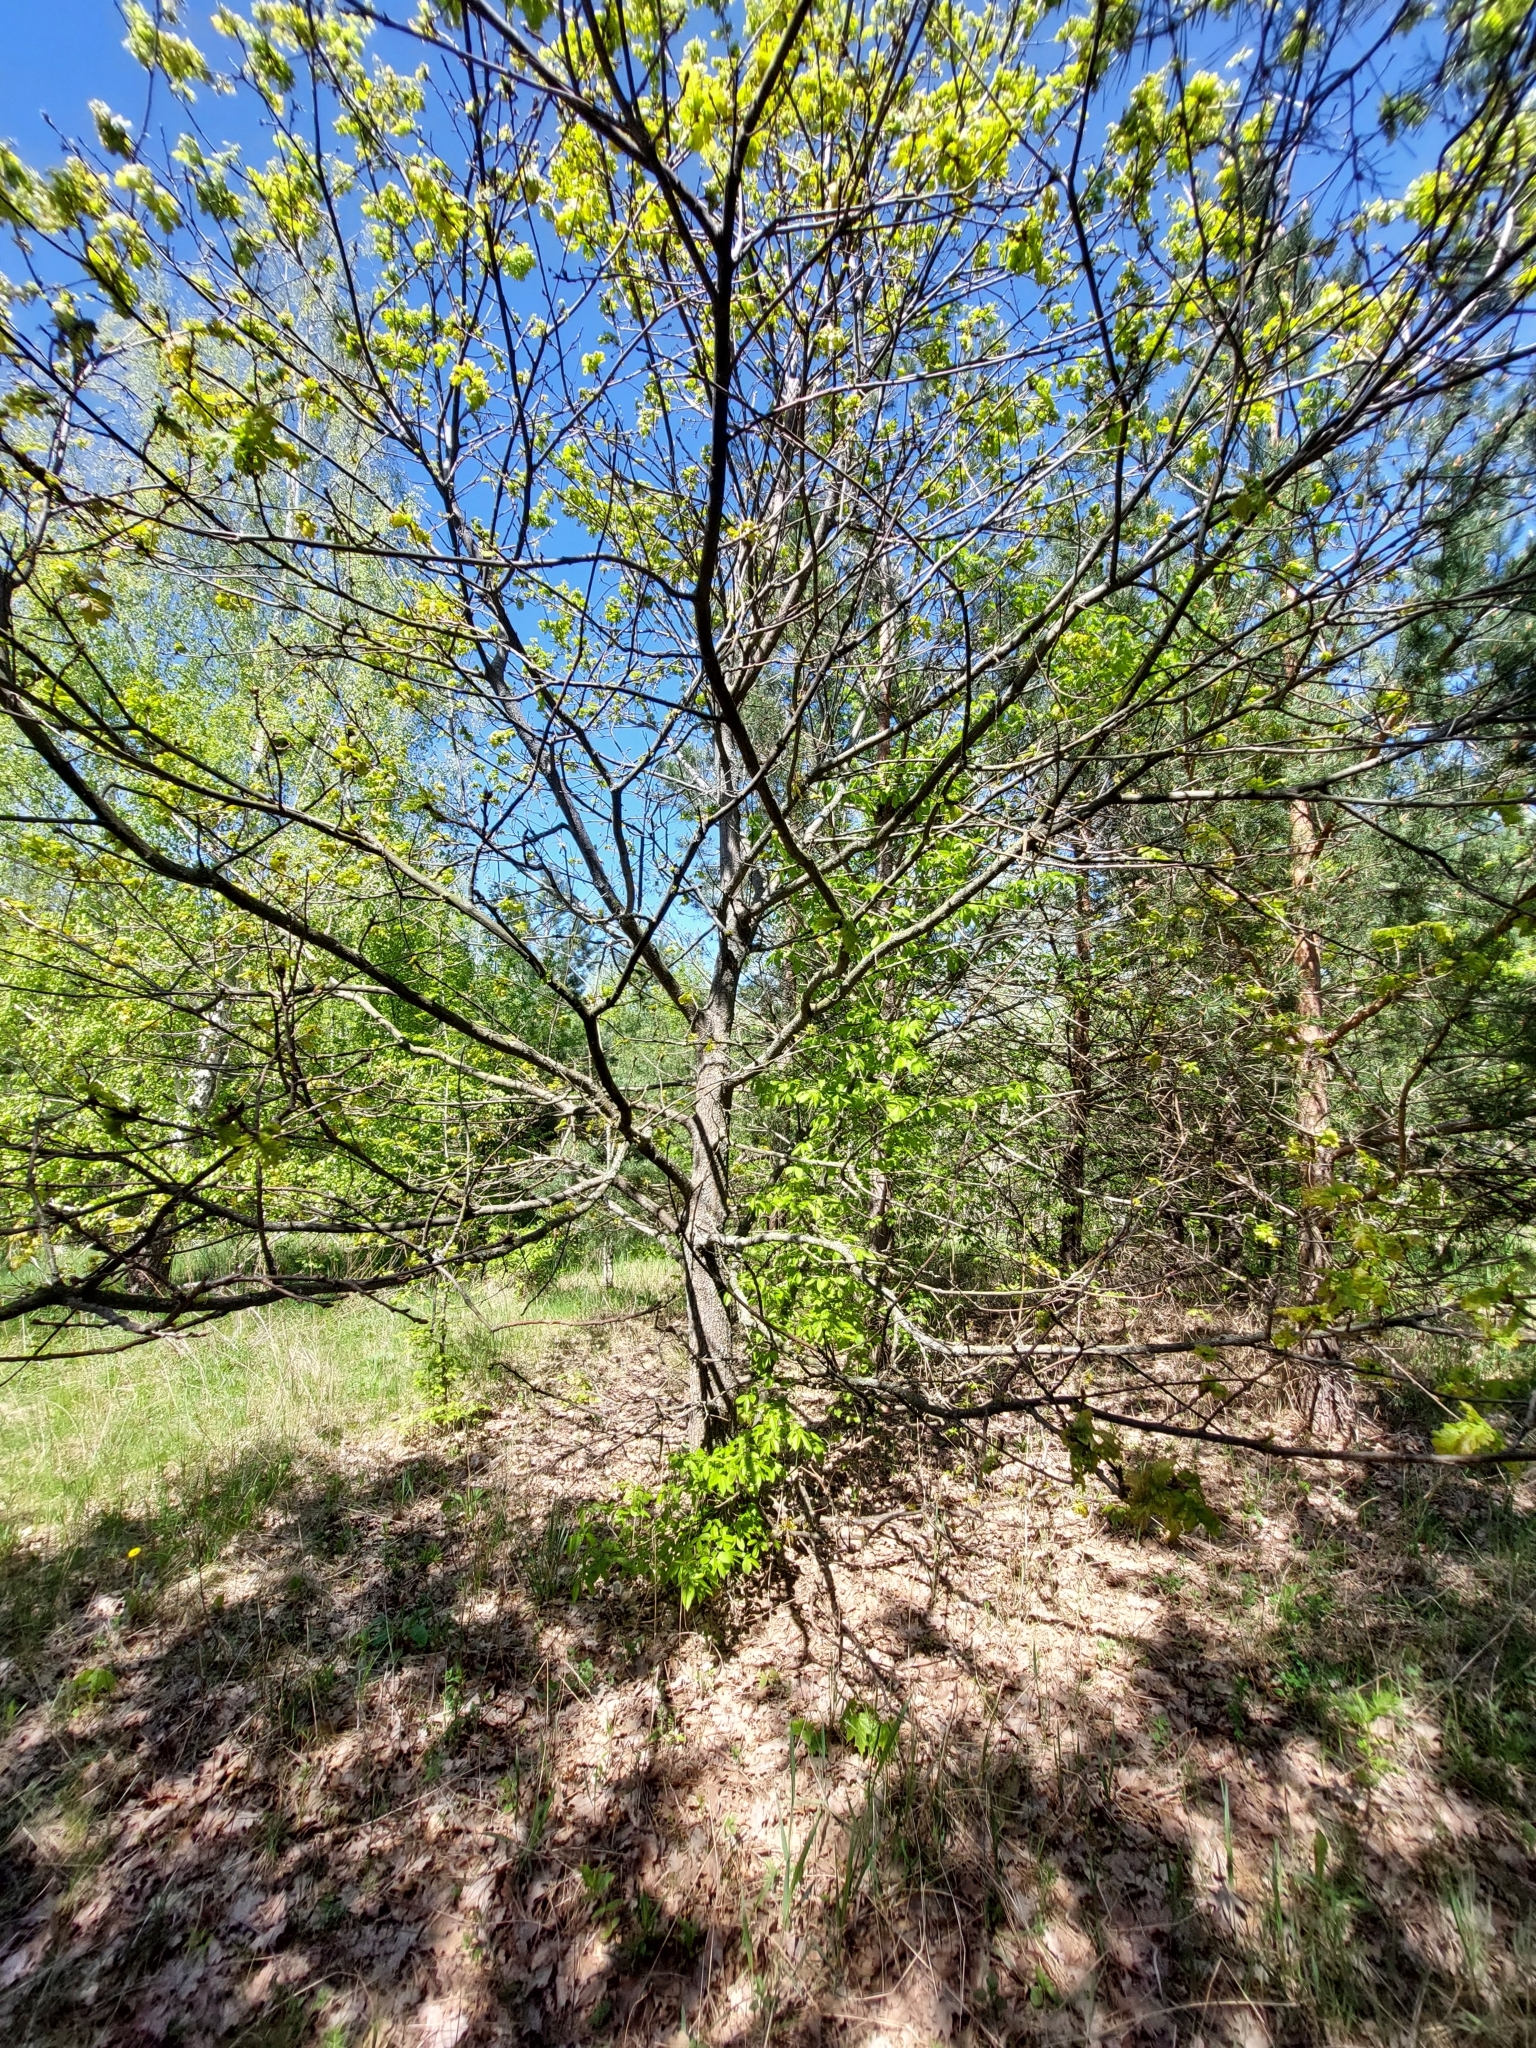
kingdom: Plantae
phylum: Tracheophyta
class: Magnoliopsida
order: Fagales
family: Fagaceae
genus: Quercus
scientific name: Quercus robur
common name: Pedunculate oak
